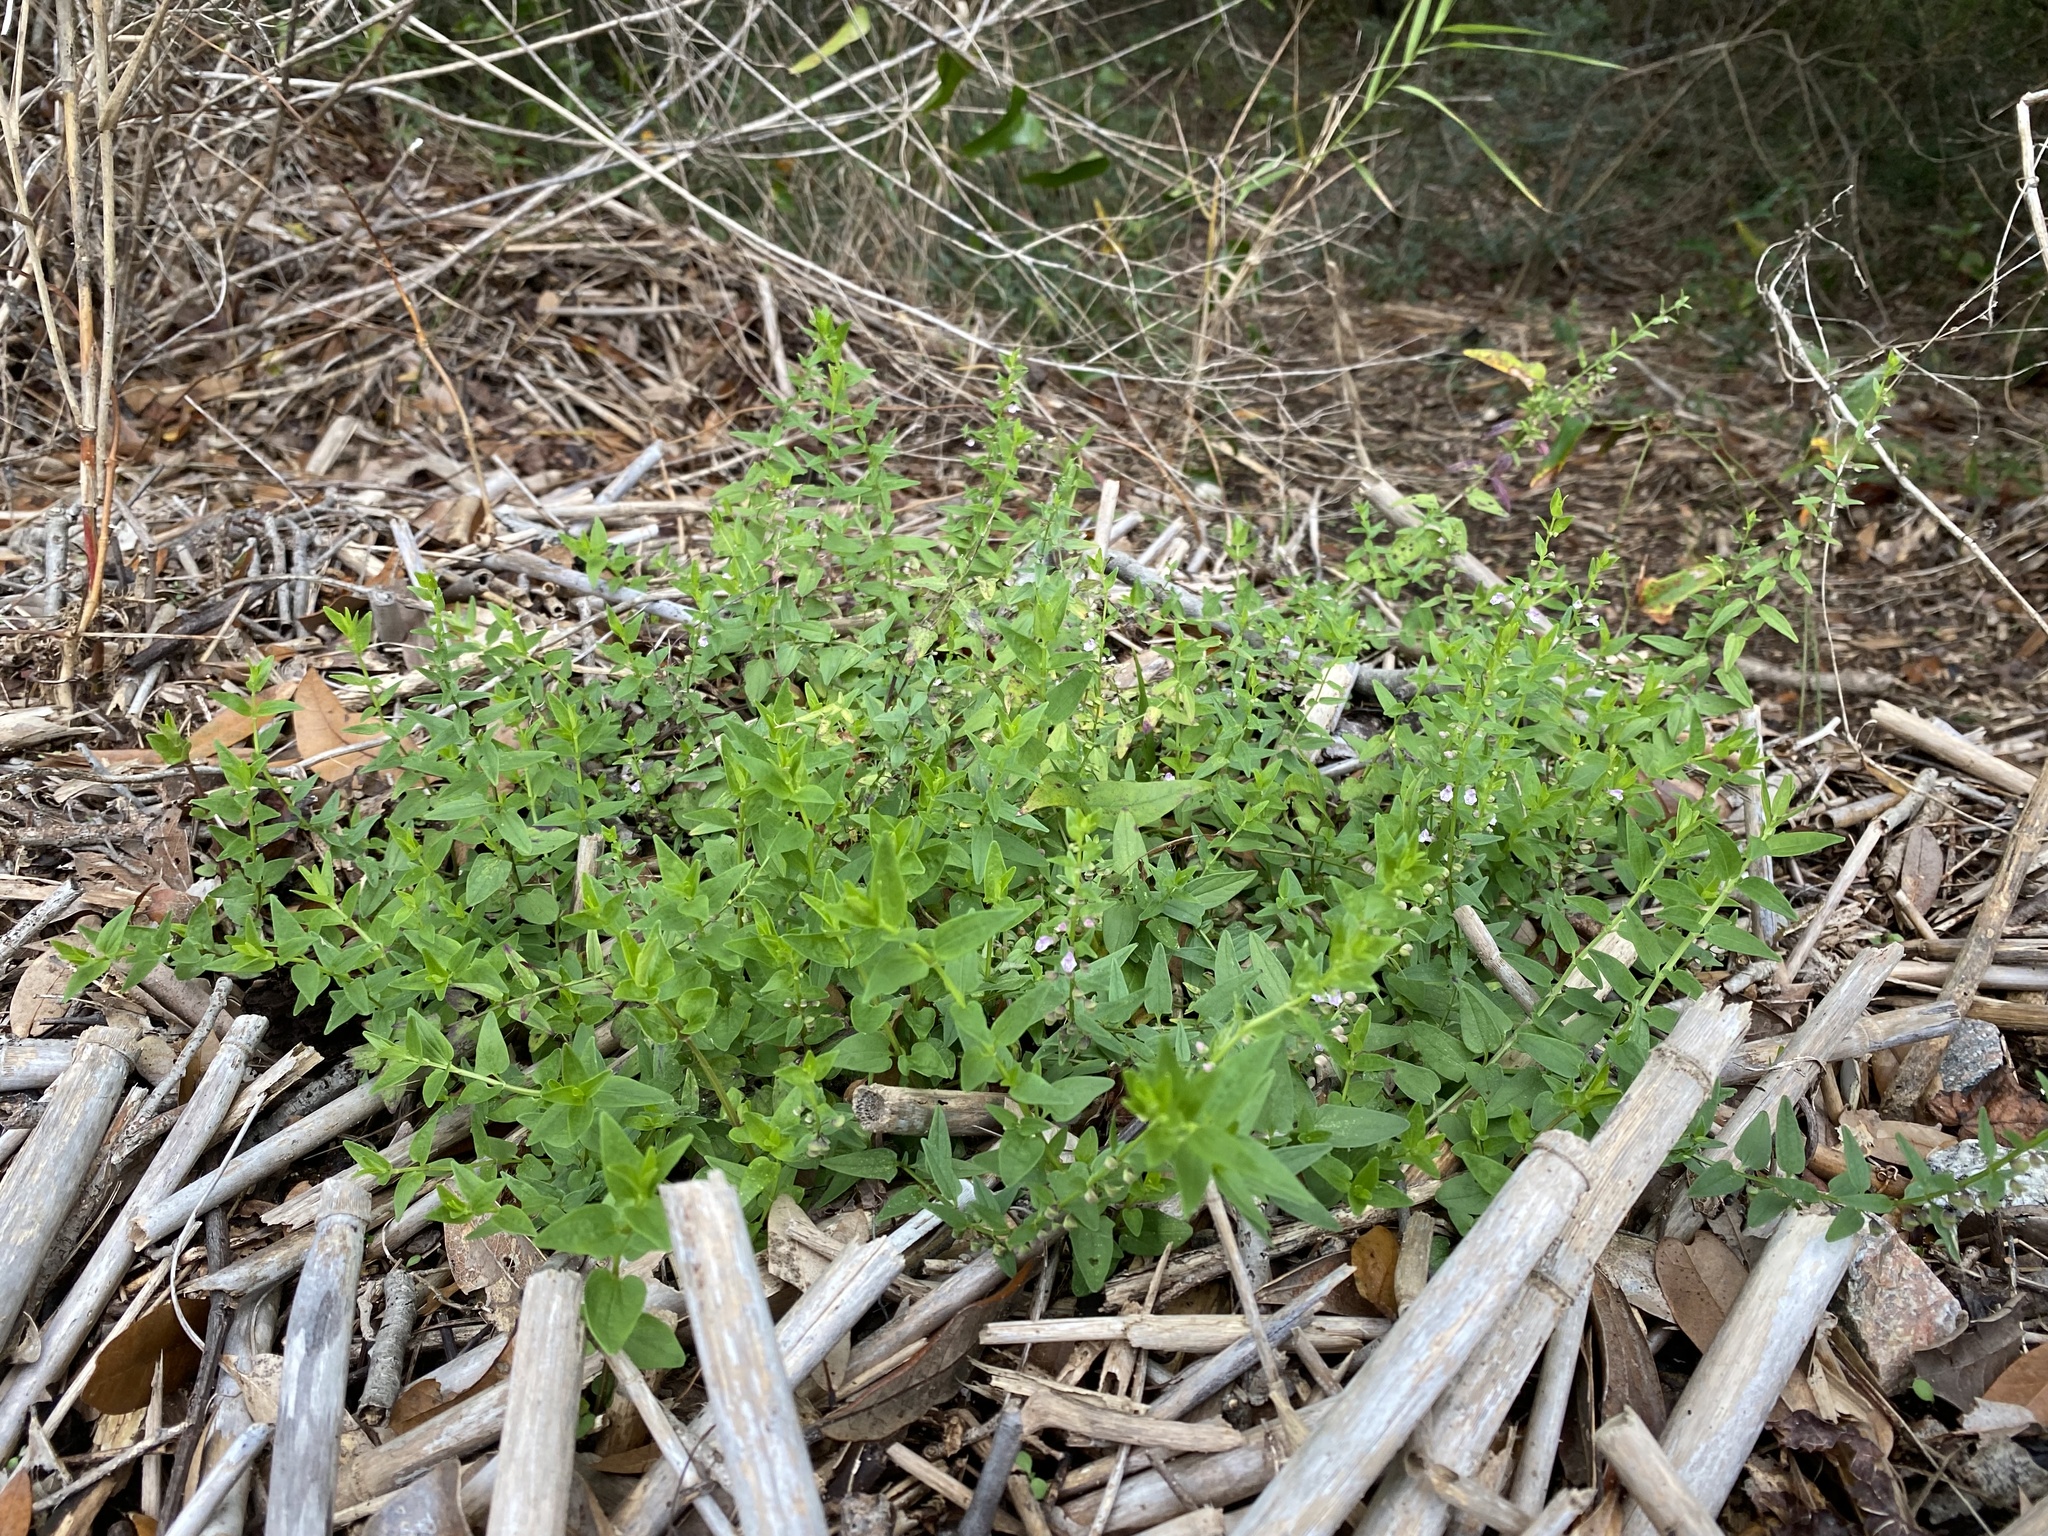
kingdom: Plantae
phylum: Tracheophyta
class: Magnoliopsida
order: Lamiales
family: Lamiaceae
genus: Scutellaria
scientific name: Scutellaria racemosa
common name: South american skullcap
